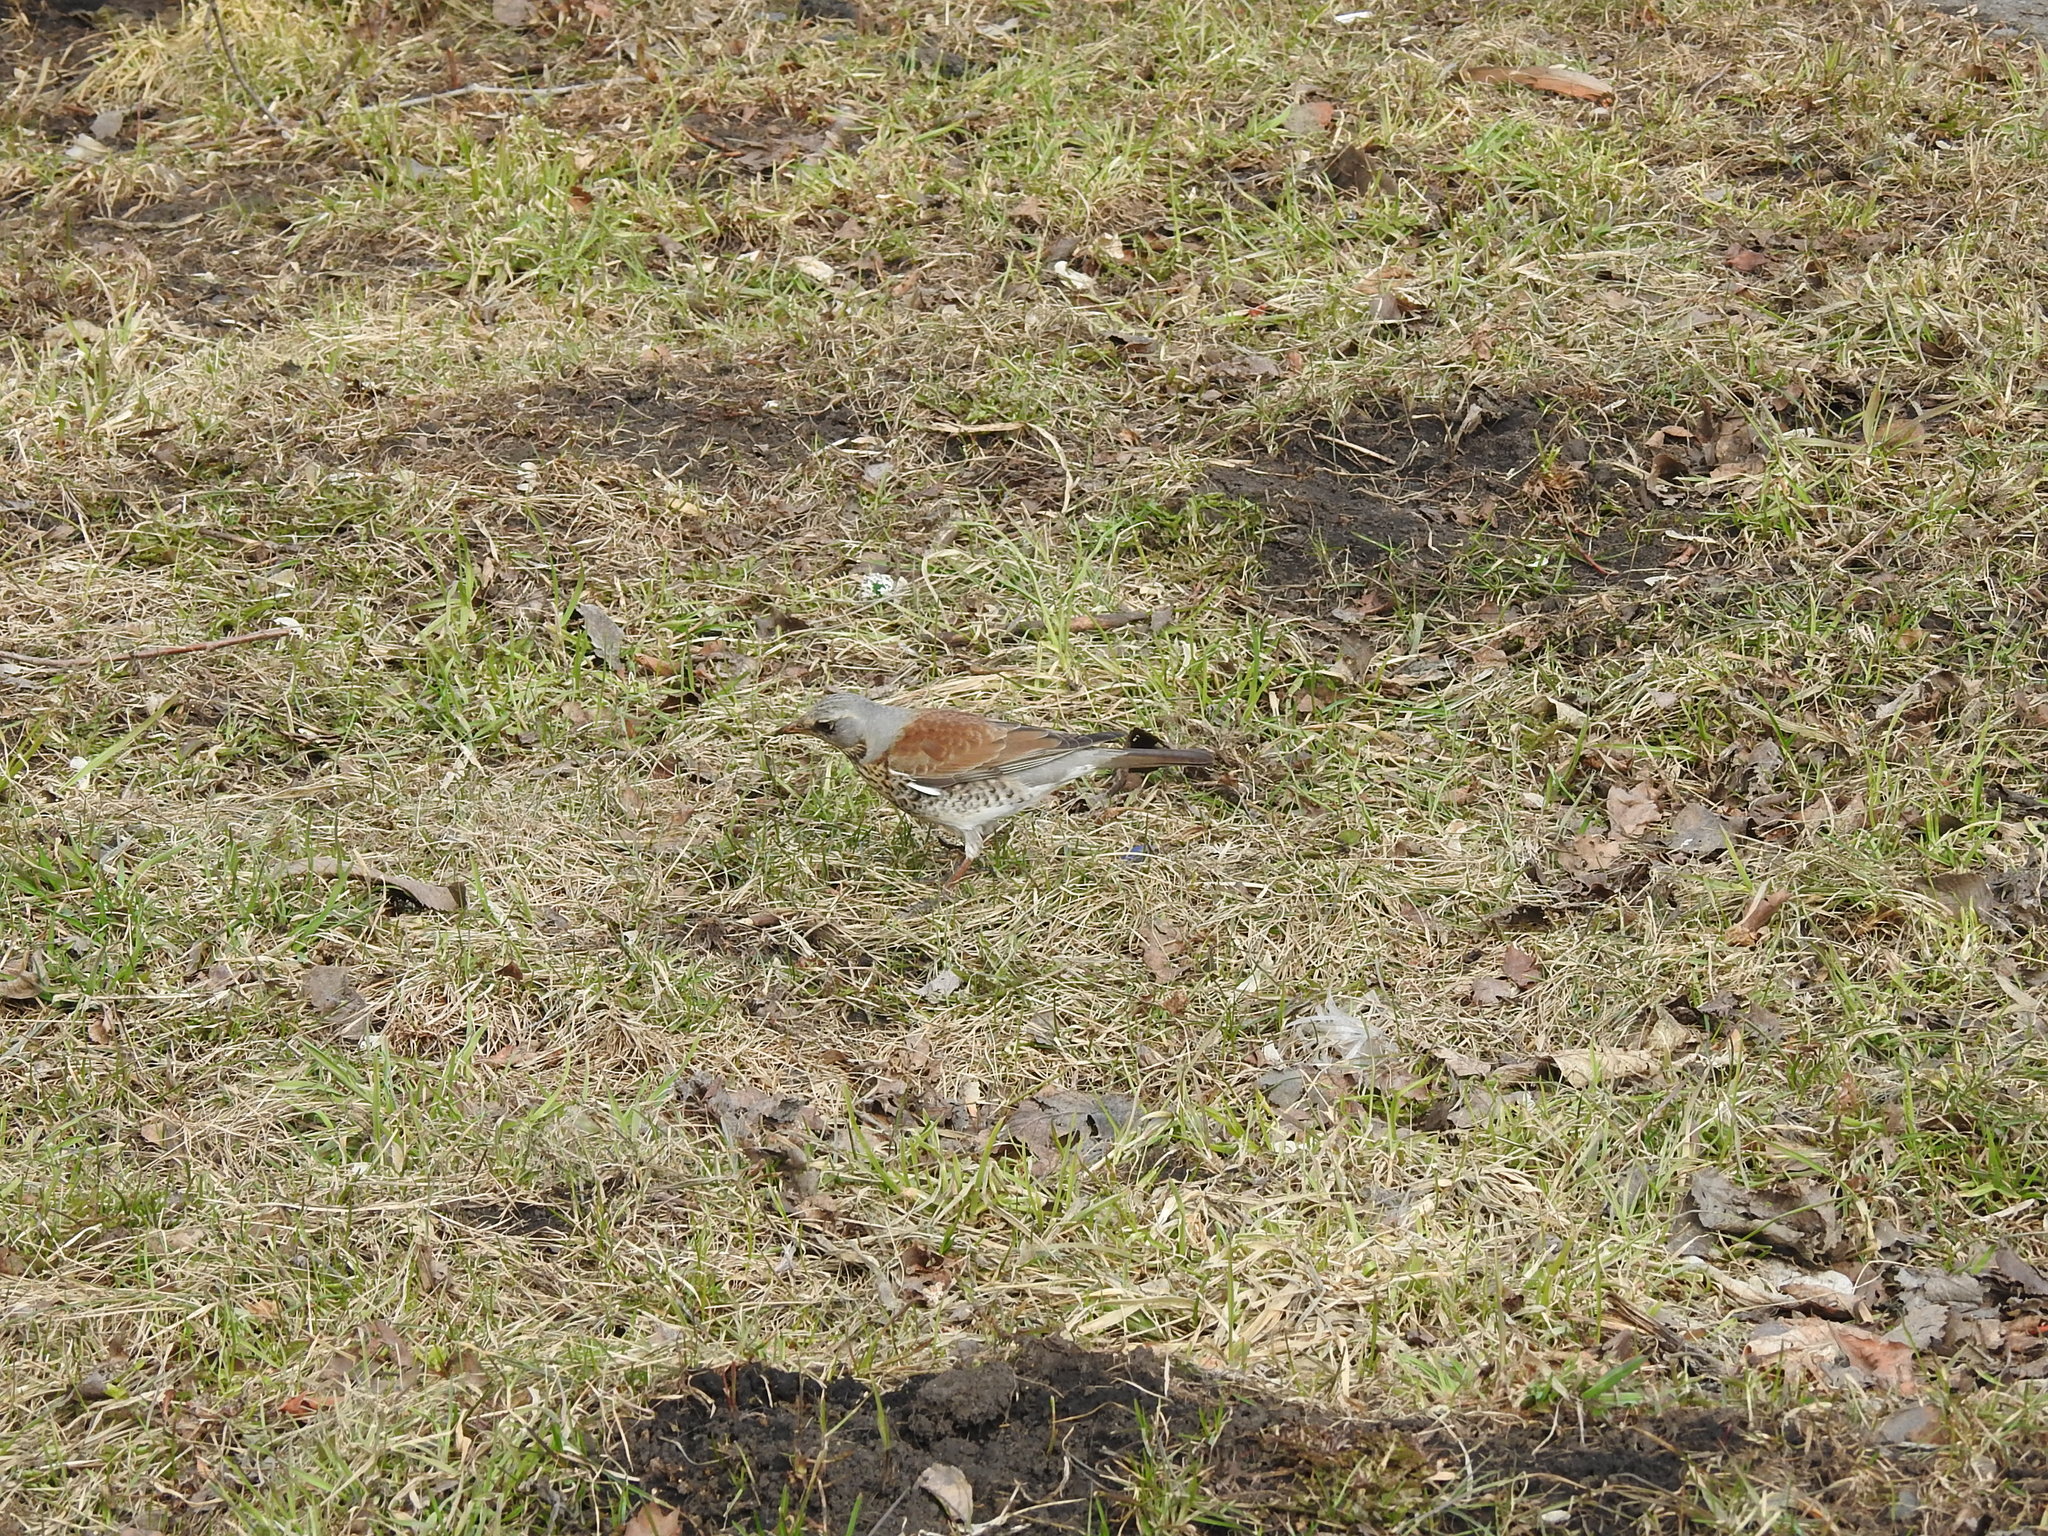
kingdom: Animalia
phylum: Chordata
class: Aves
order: Passeriformes
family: Turdidae
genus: Turdus
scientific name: Turdus pilaris
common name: Fieldfare
